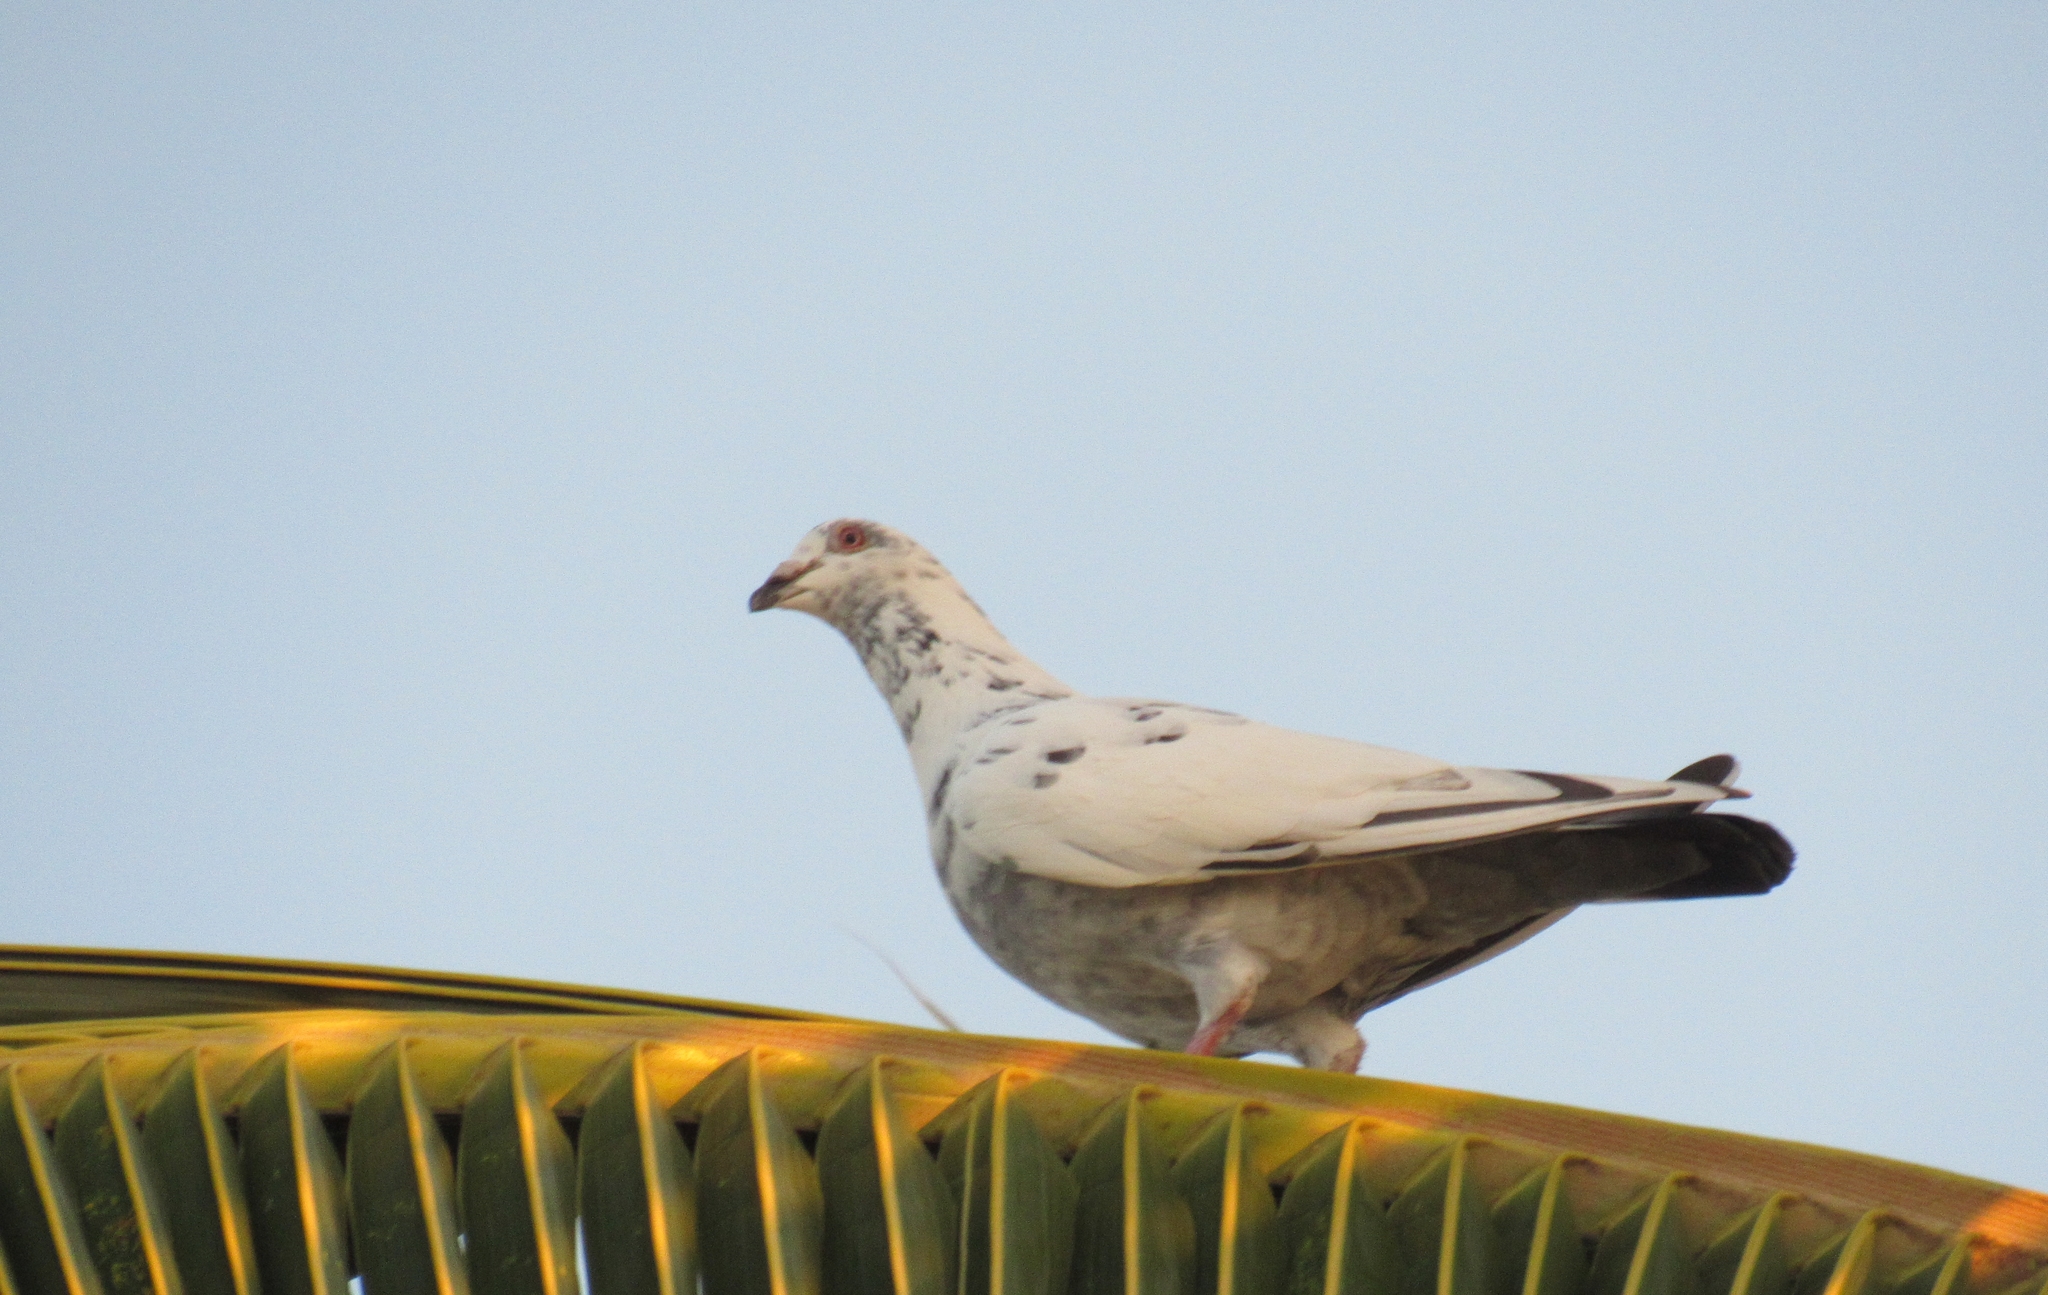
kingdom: Animalia
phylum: Chordata
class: Aves
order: Columbiformes
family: Columbidae
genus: Columba
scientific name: Columba livia
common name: Rock pigeon
